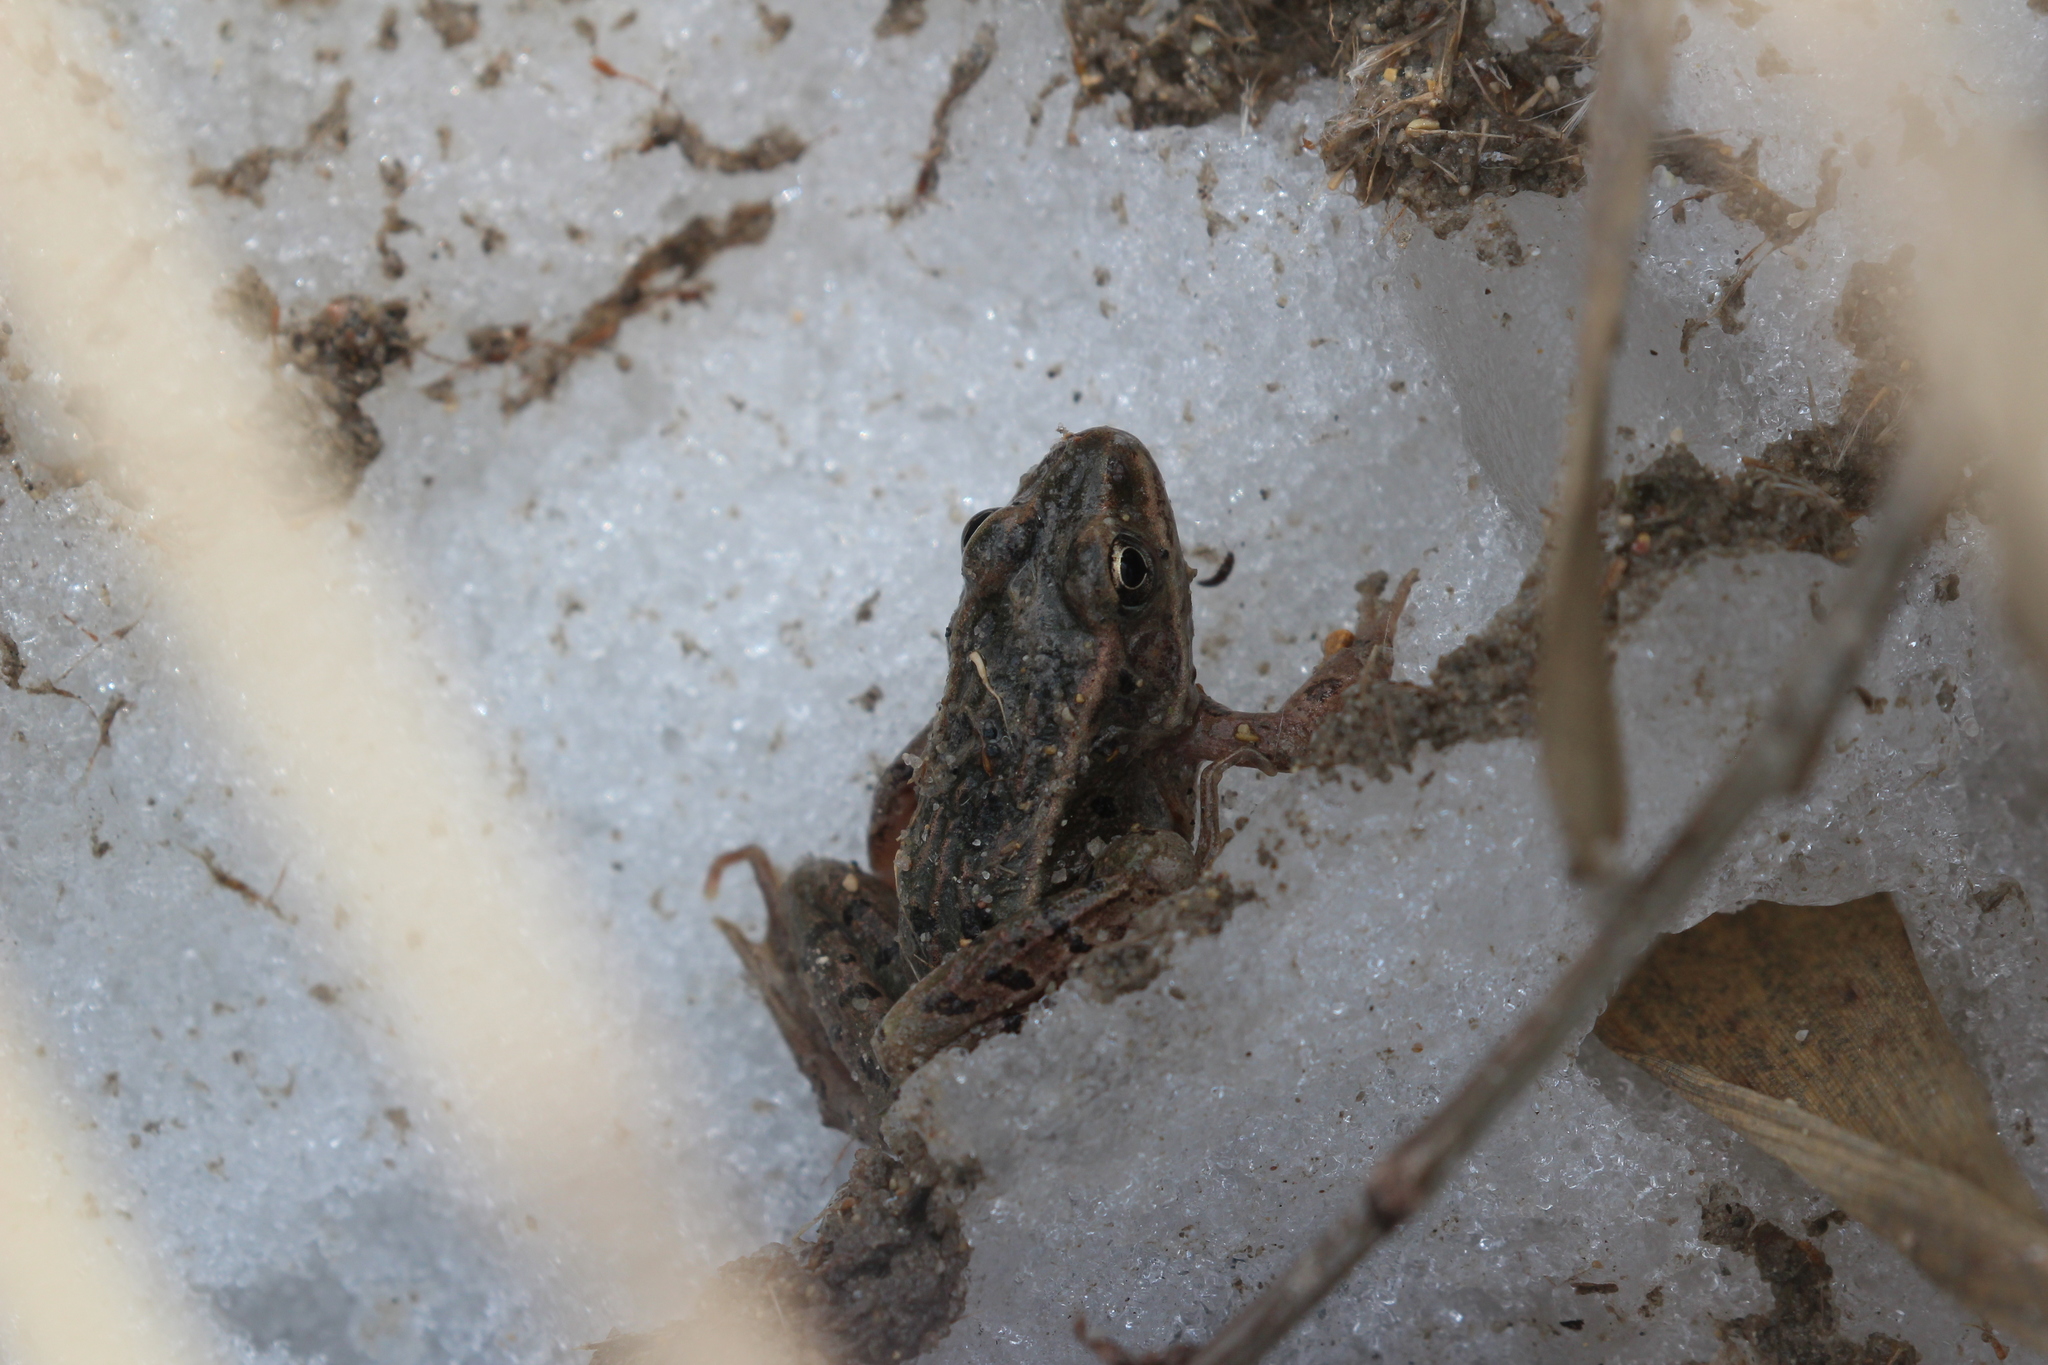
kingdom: Animalia
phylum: Chordata
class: Amphibia
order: Anura
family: Ranidae
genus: Lithobates
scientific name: Lithobates pipiens
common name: Northern leopard frog
